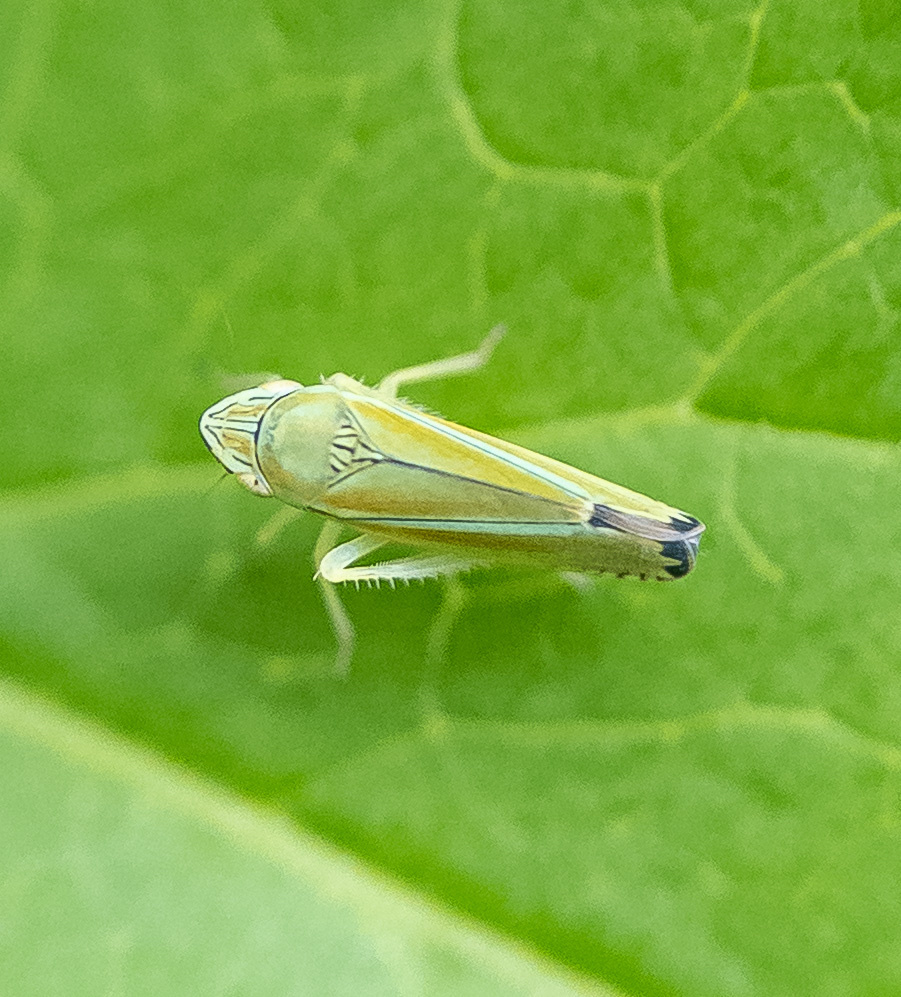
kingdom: Animalia
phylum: Arthropoda
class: Insecta
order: Hemiptera
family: Cicadellidae
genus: Graphocephala
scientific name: Graphocephala versuta
